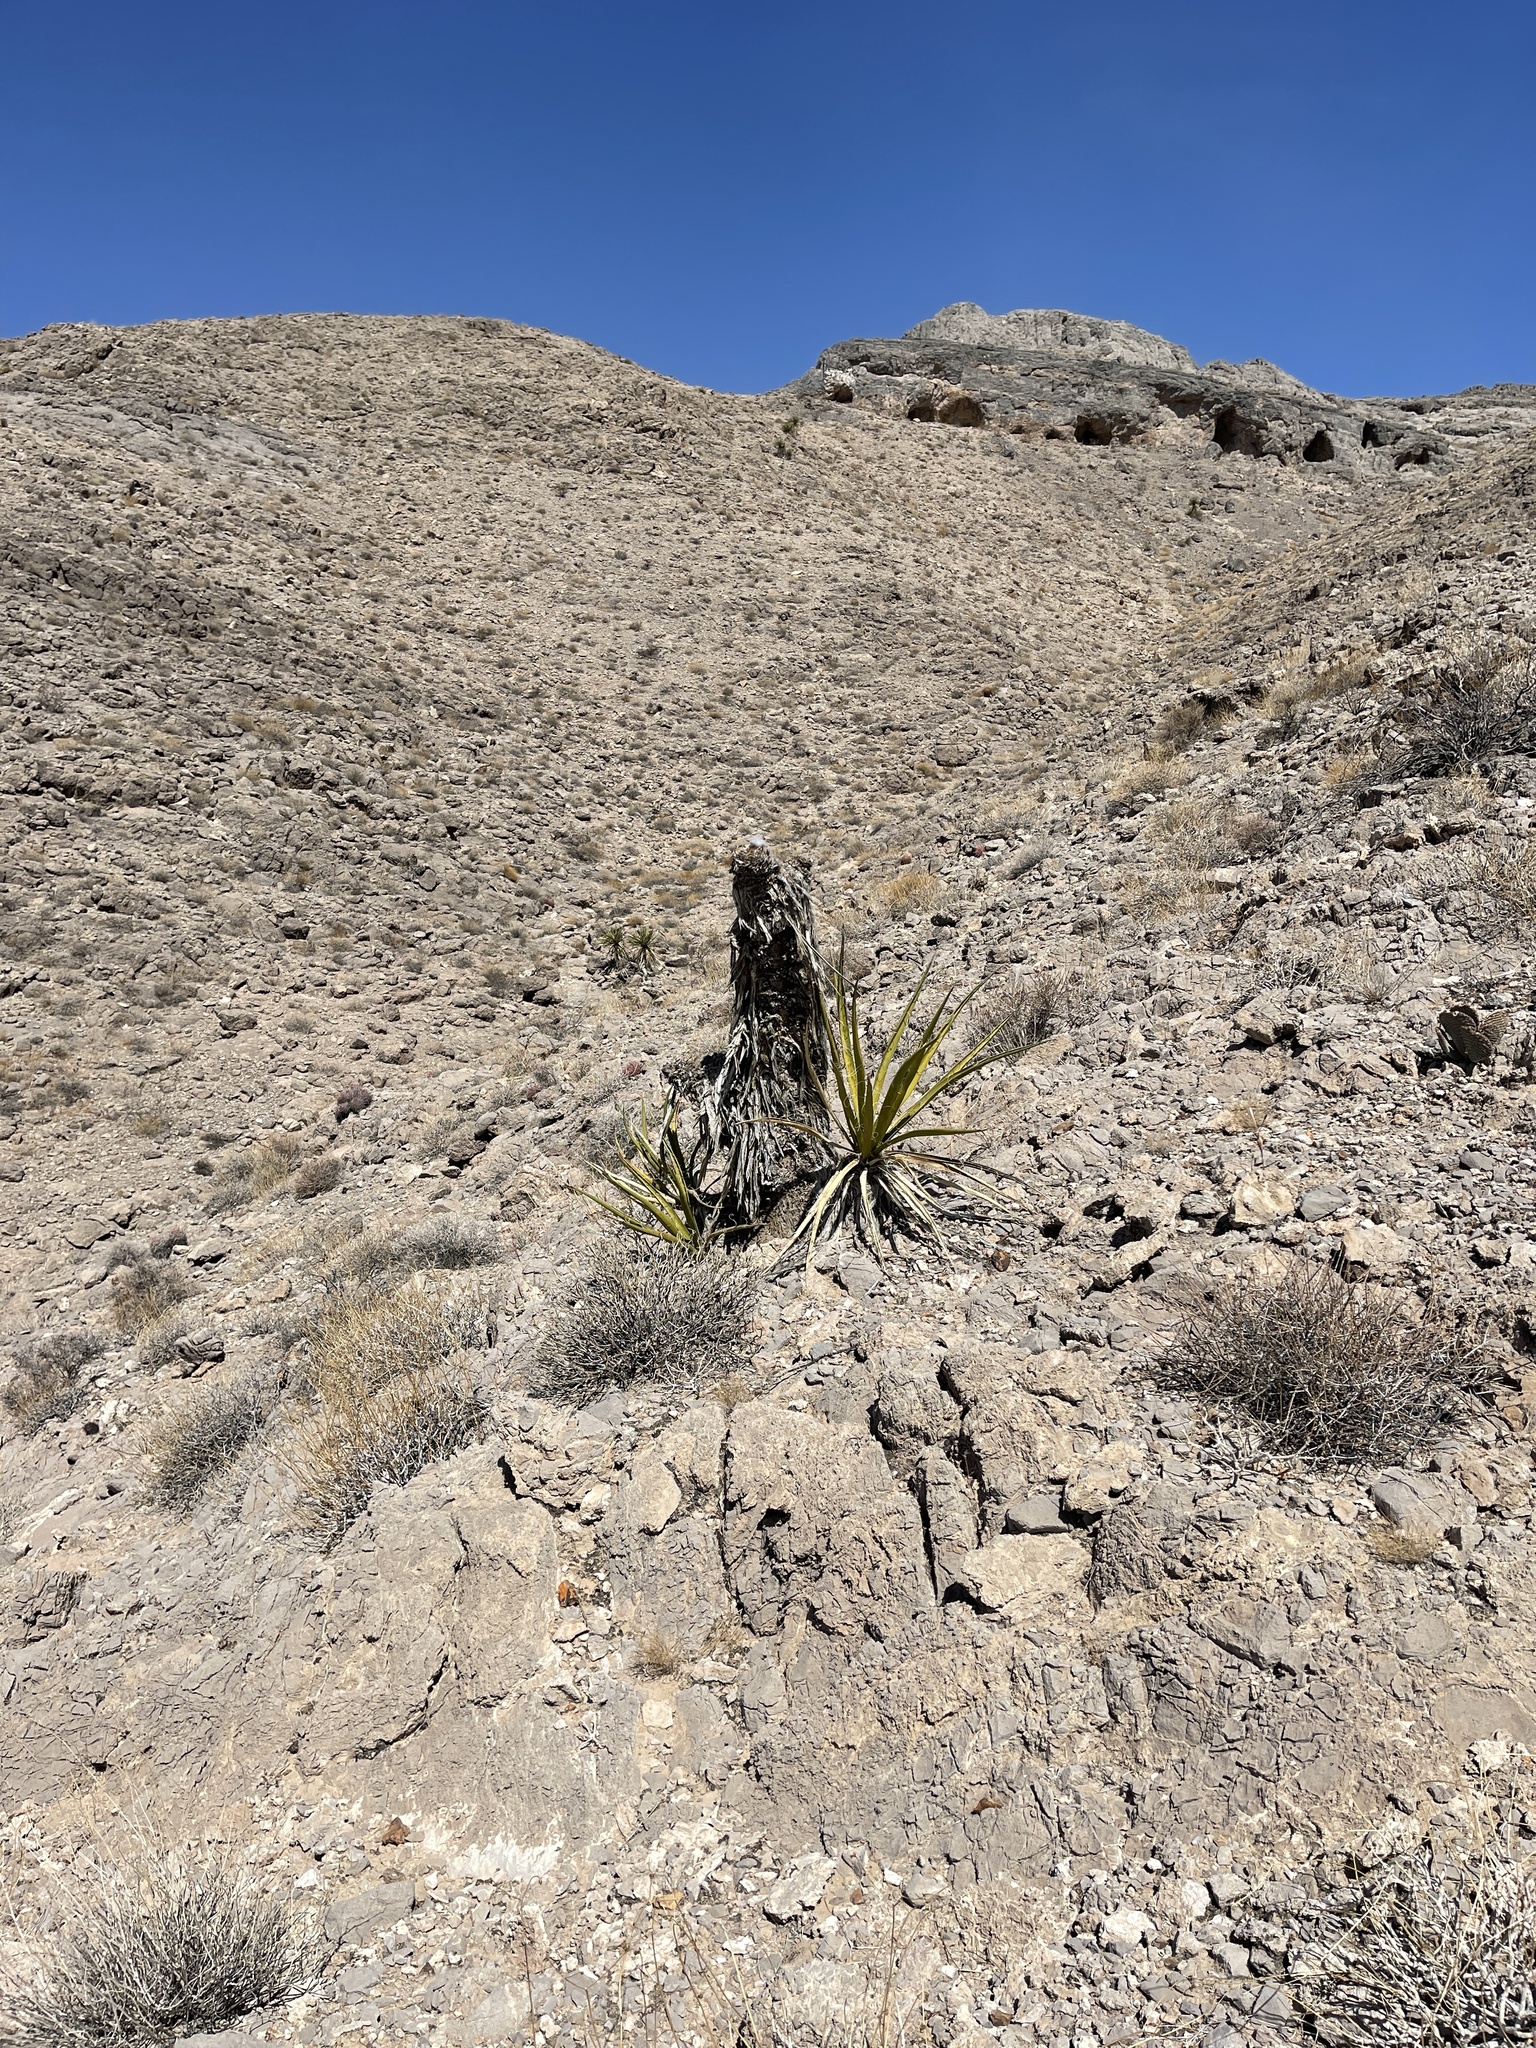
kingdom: Plantae
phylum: Tracheophyta
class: Liliopsida
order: Asparagales
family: Asparagaceae
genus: Yucca
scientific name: Yucca schidigera
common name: Mojave yucca
